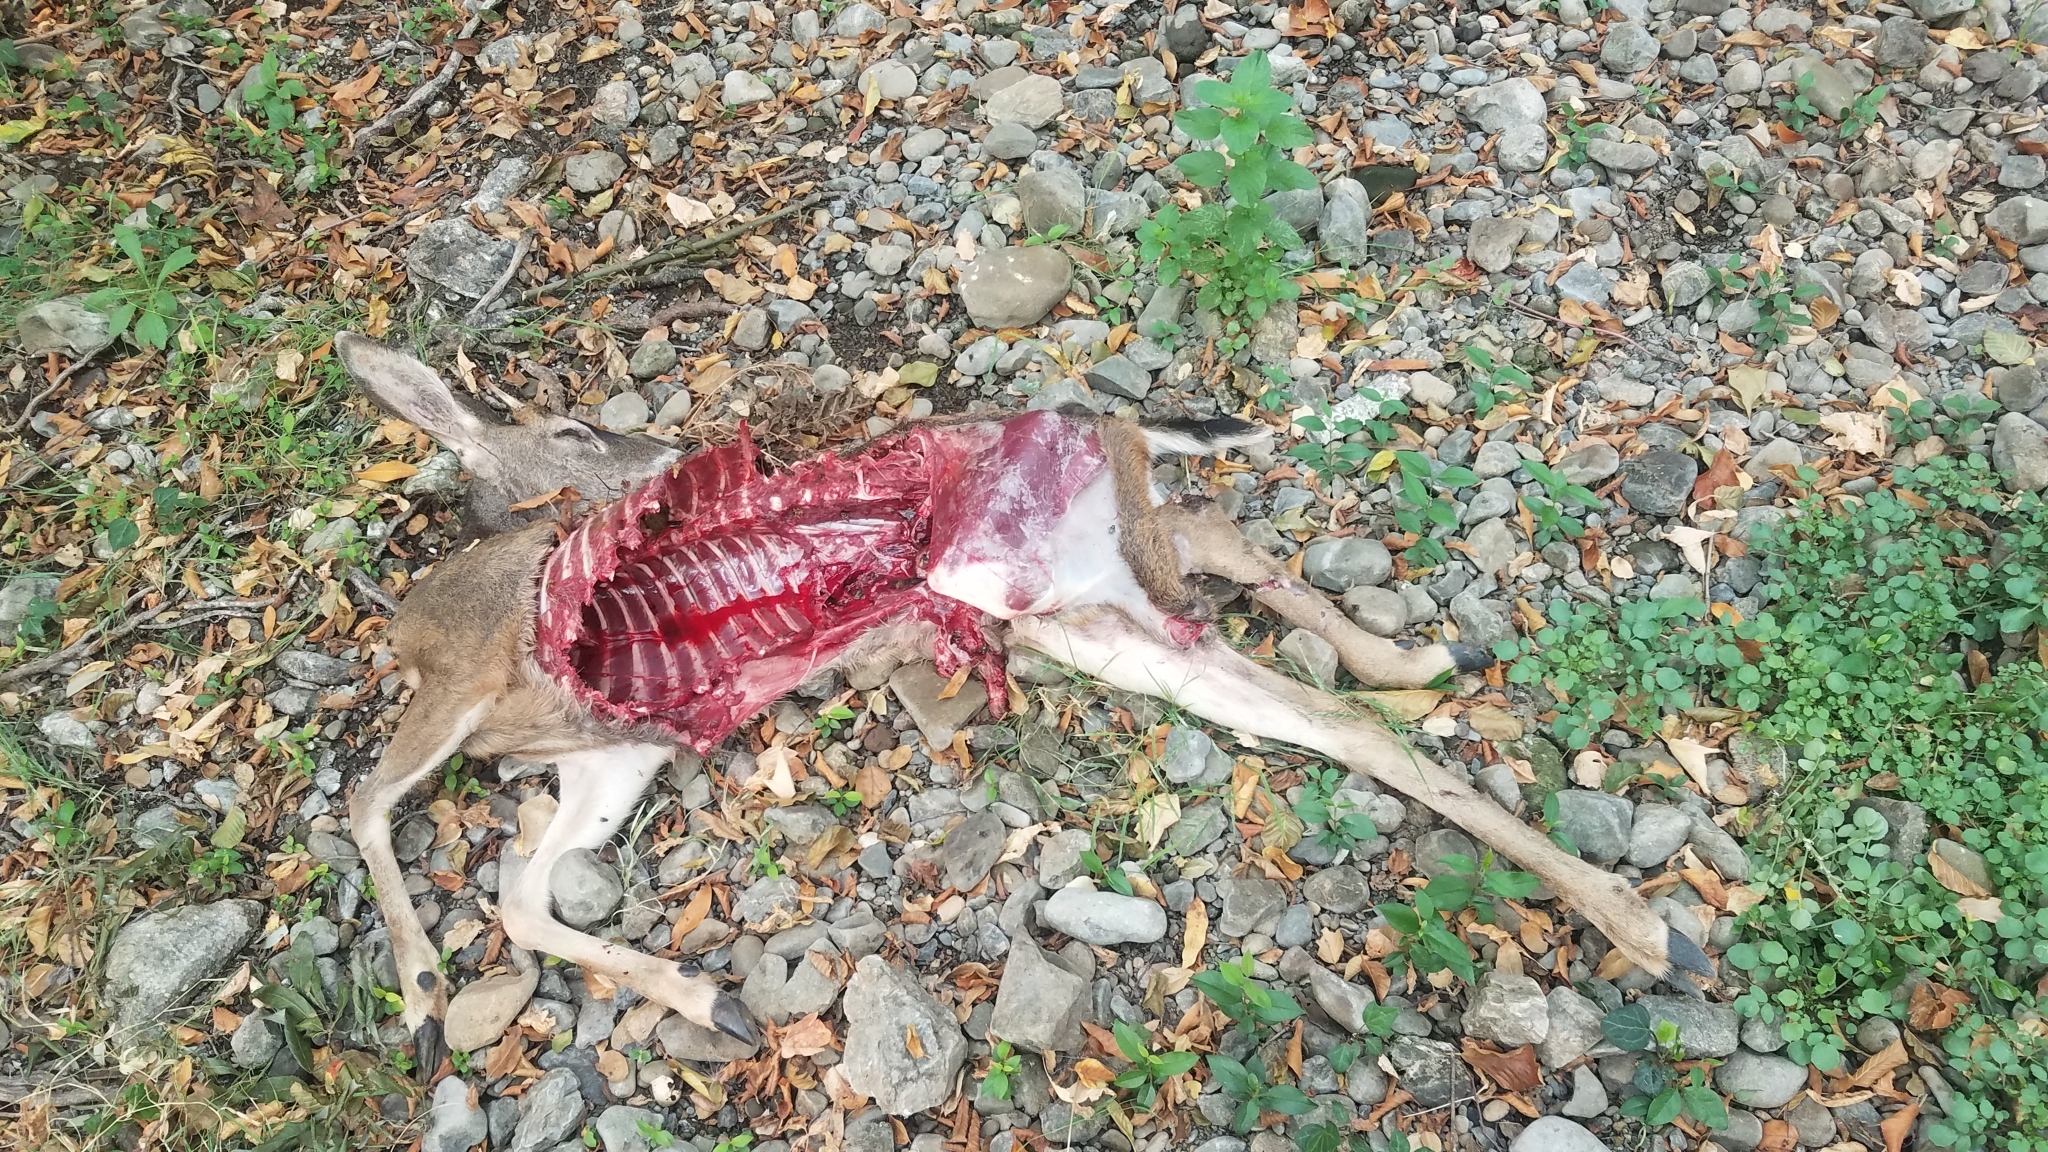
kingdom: Animalia
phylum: Chordata
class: Mammalia
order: Artiodactyla
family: Cervidae
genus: Odocoileus
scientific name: Odocoileus hemionus
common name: Mule deer
